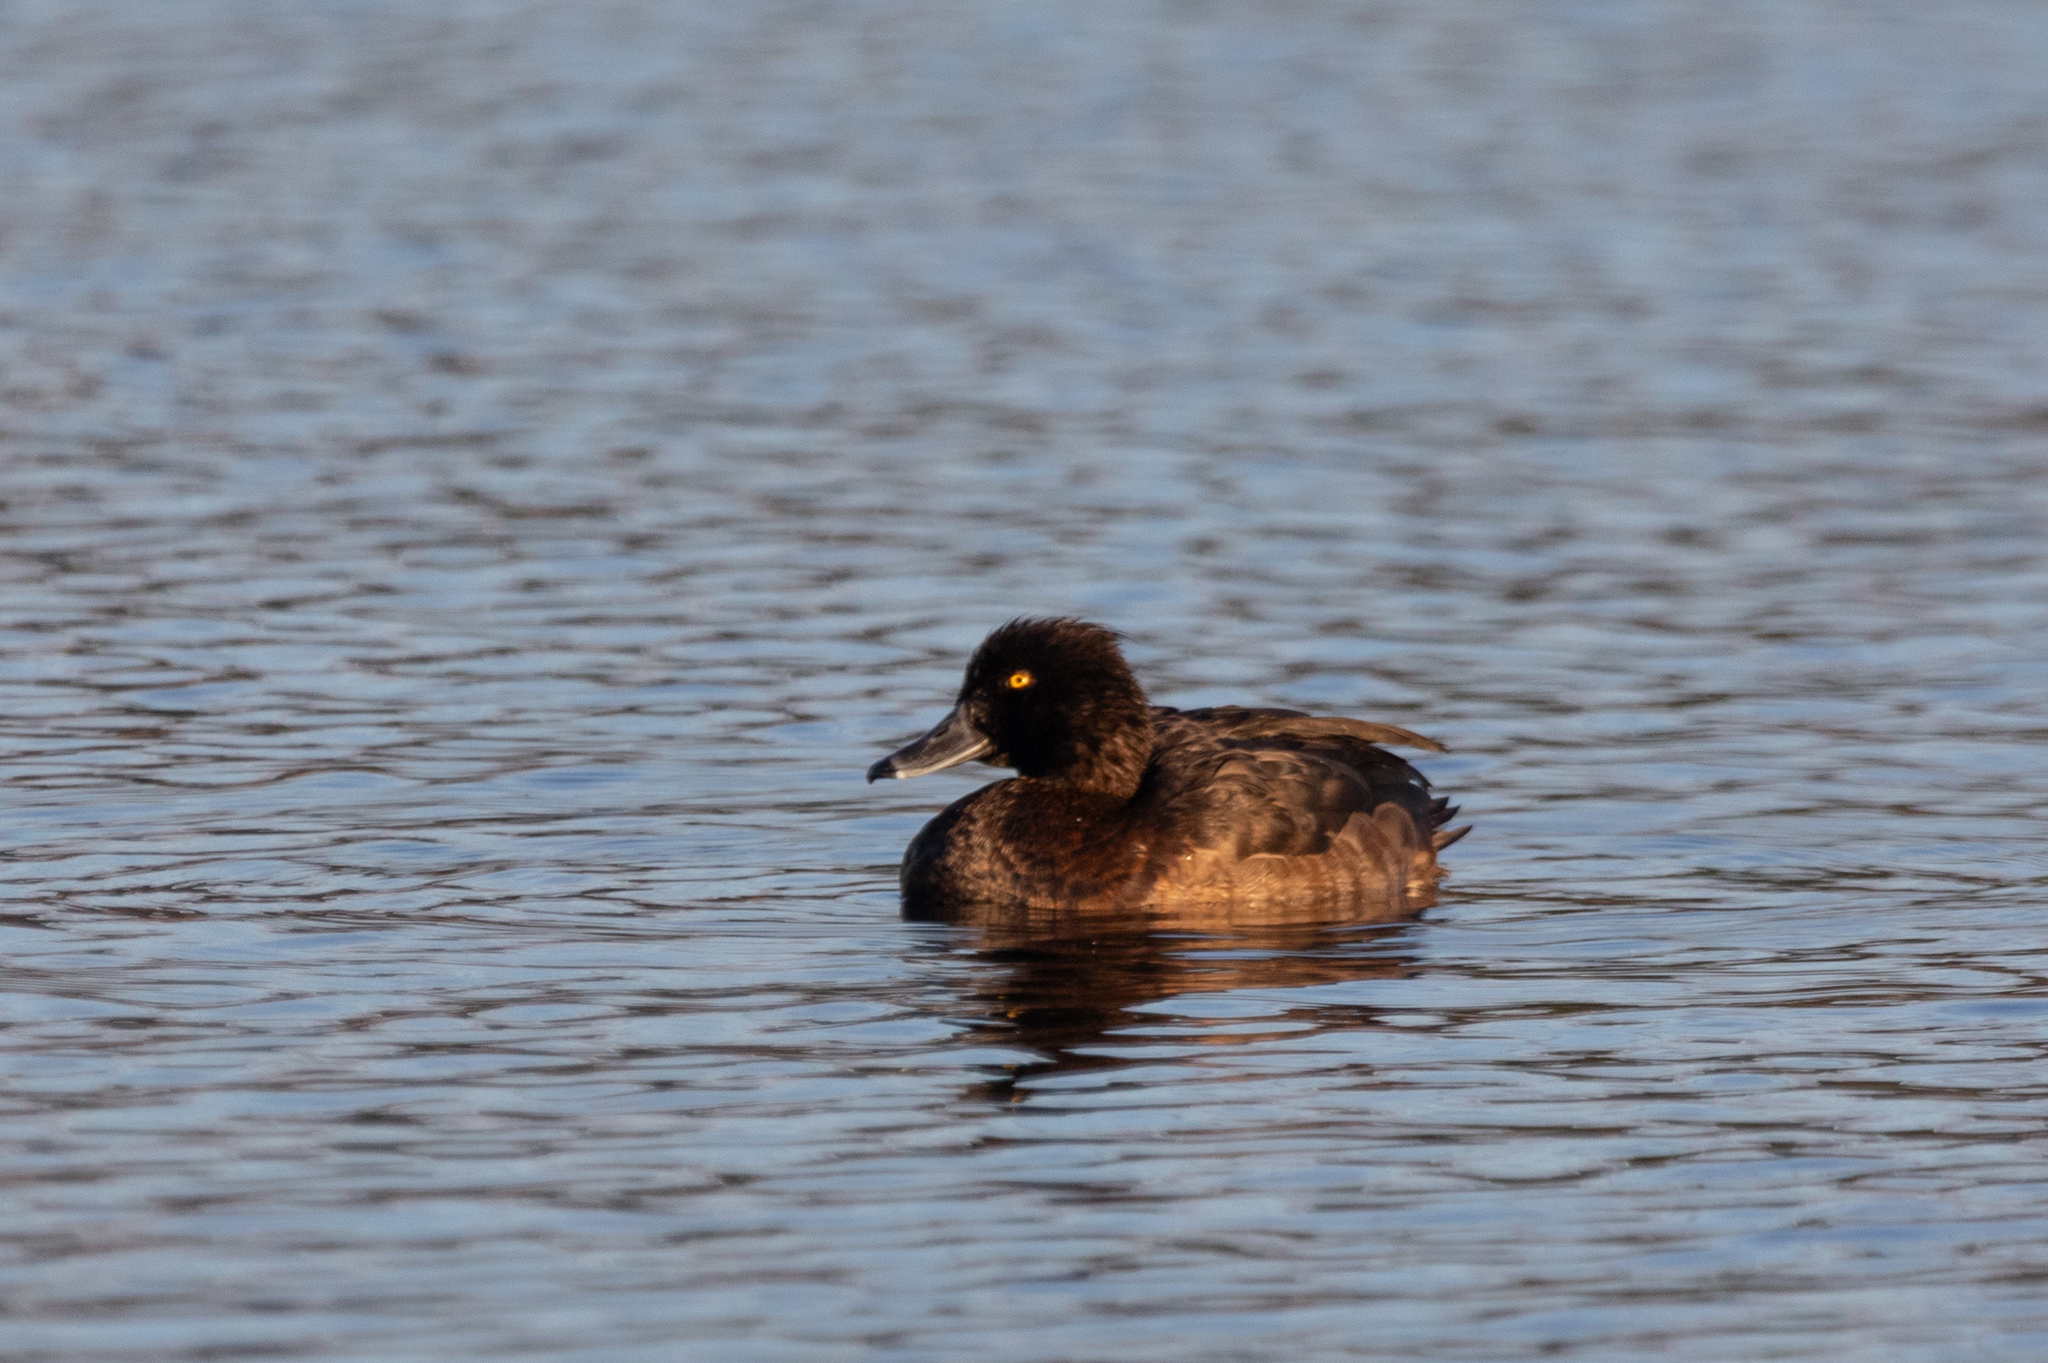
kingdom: Animalia
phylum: Chordata
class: Aves
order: Anseriformes
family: Anatidae
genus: Aythya
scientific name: Aythya fuligula
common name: Tufted duck
